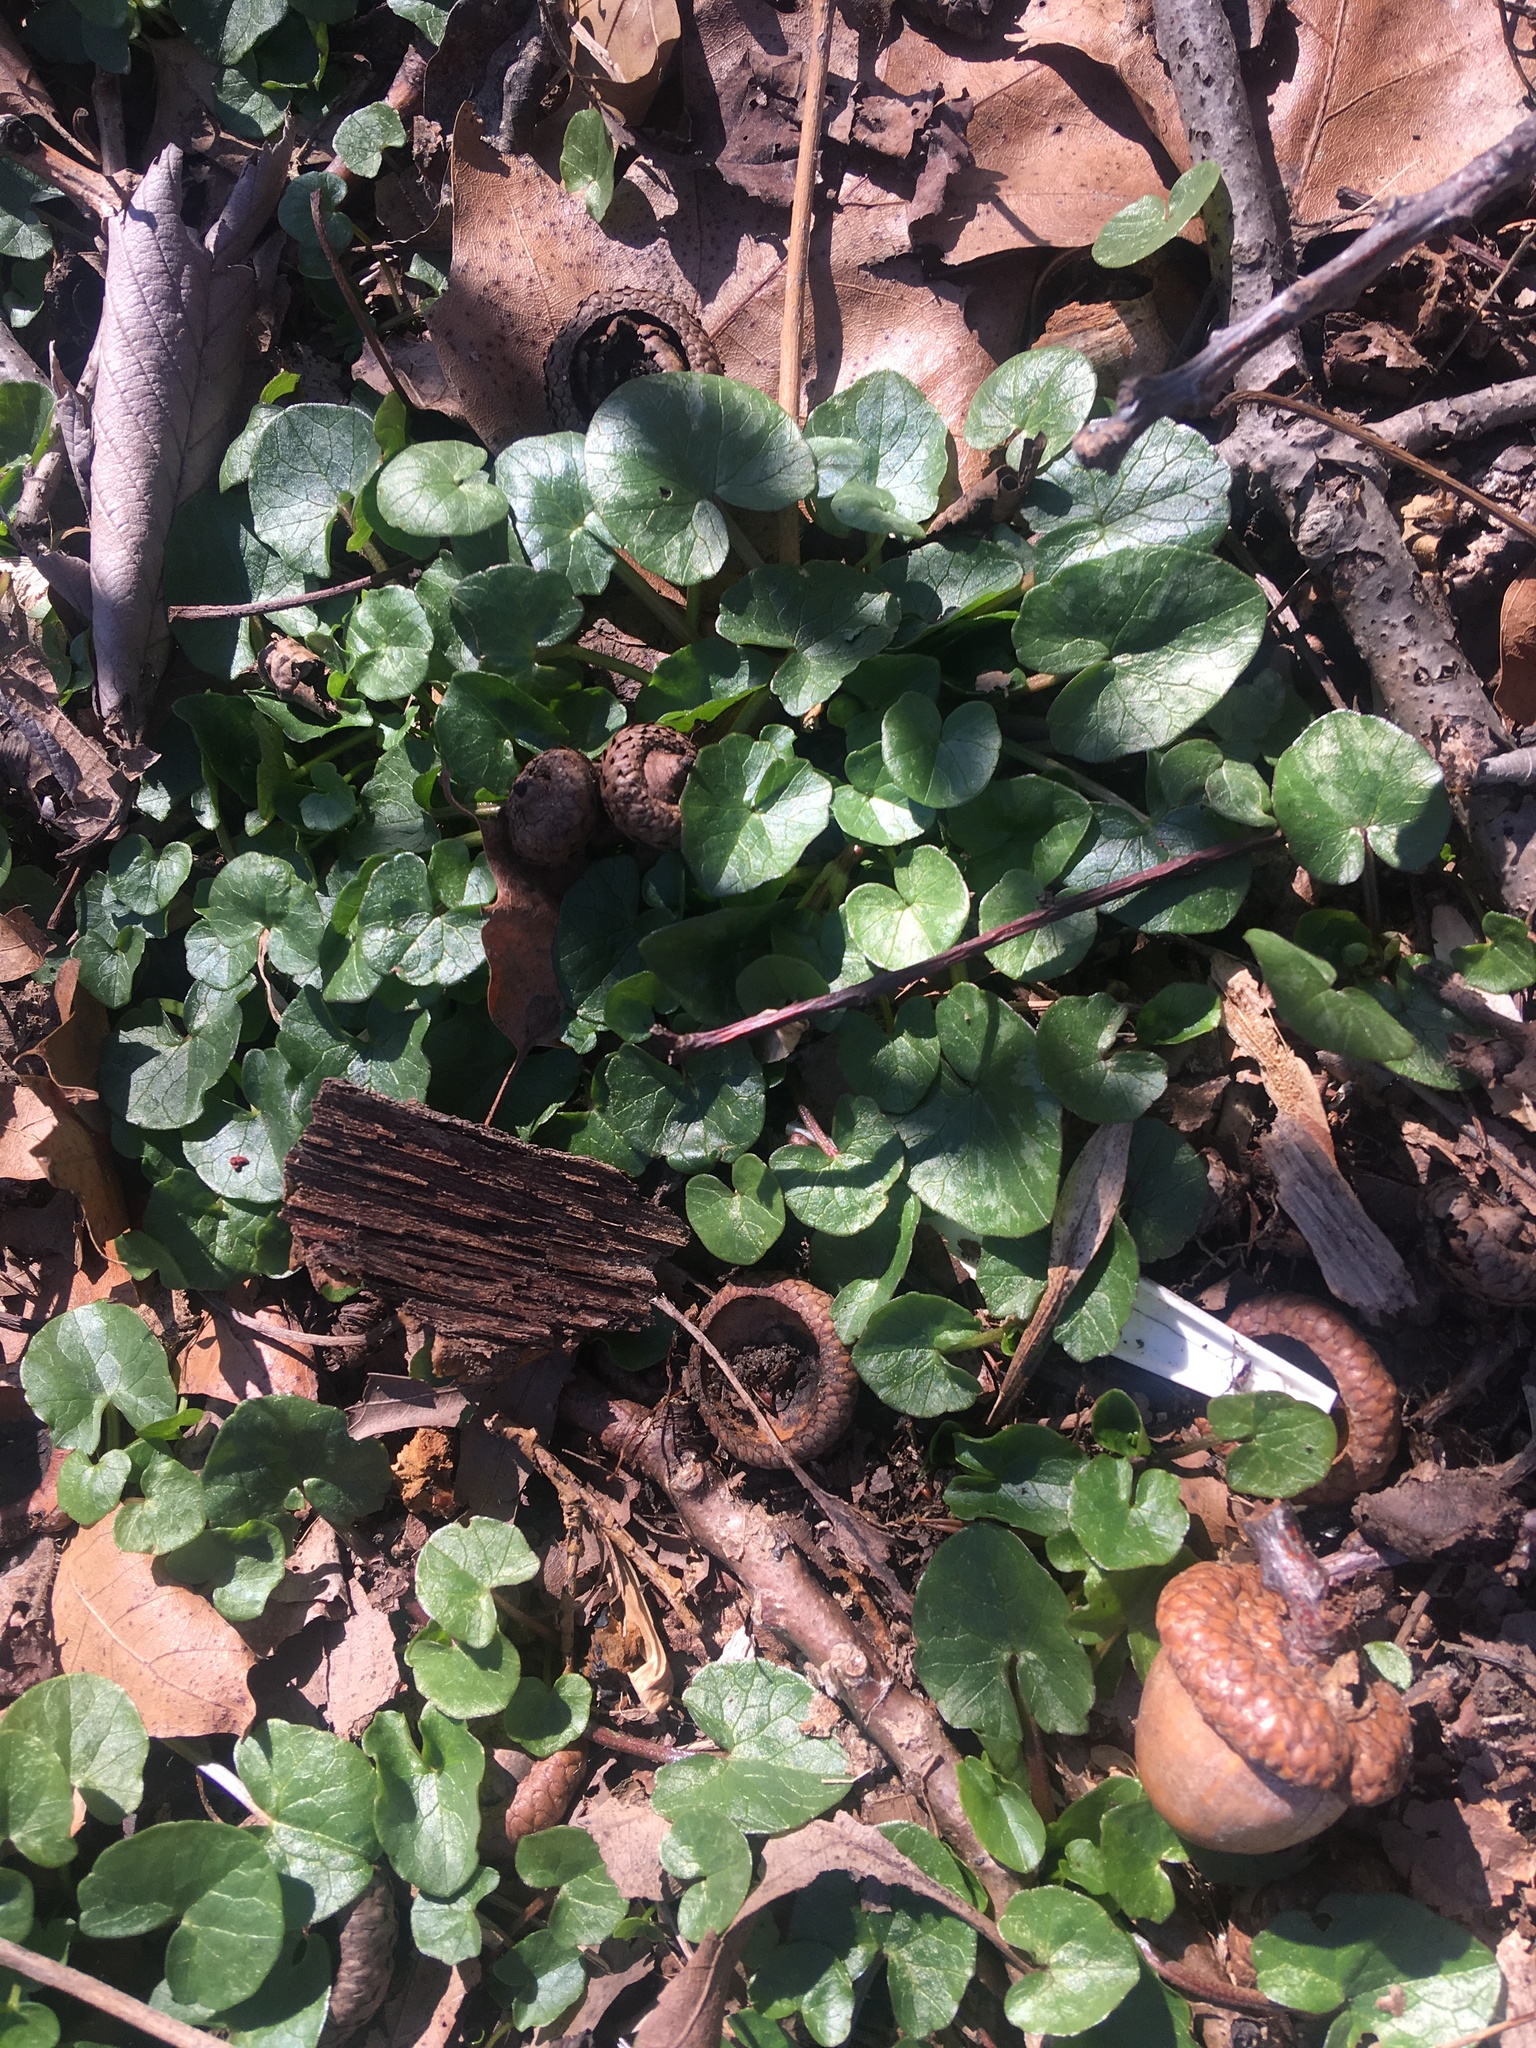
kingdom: Plantae
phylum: Tracheophyta
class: Magnoliopsida
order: Ranunculales
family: Ranunculaceae
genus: Ficaria
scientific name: Ficaria verna
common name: Lesser celandine
